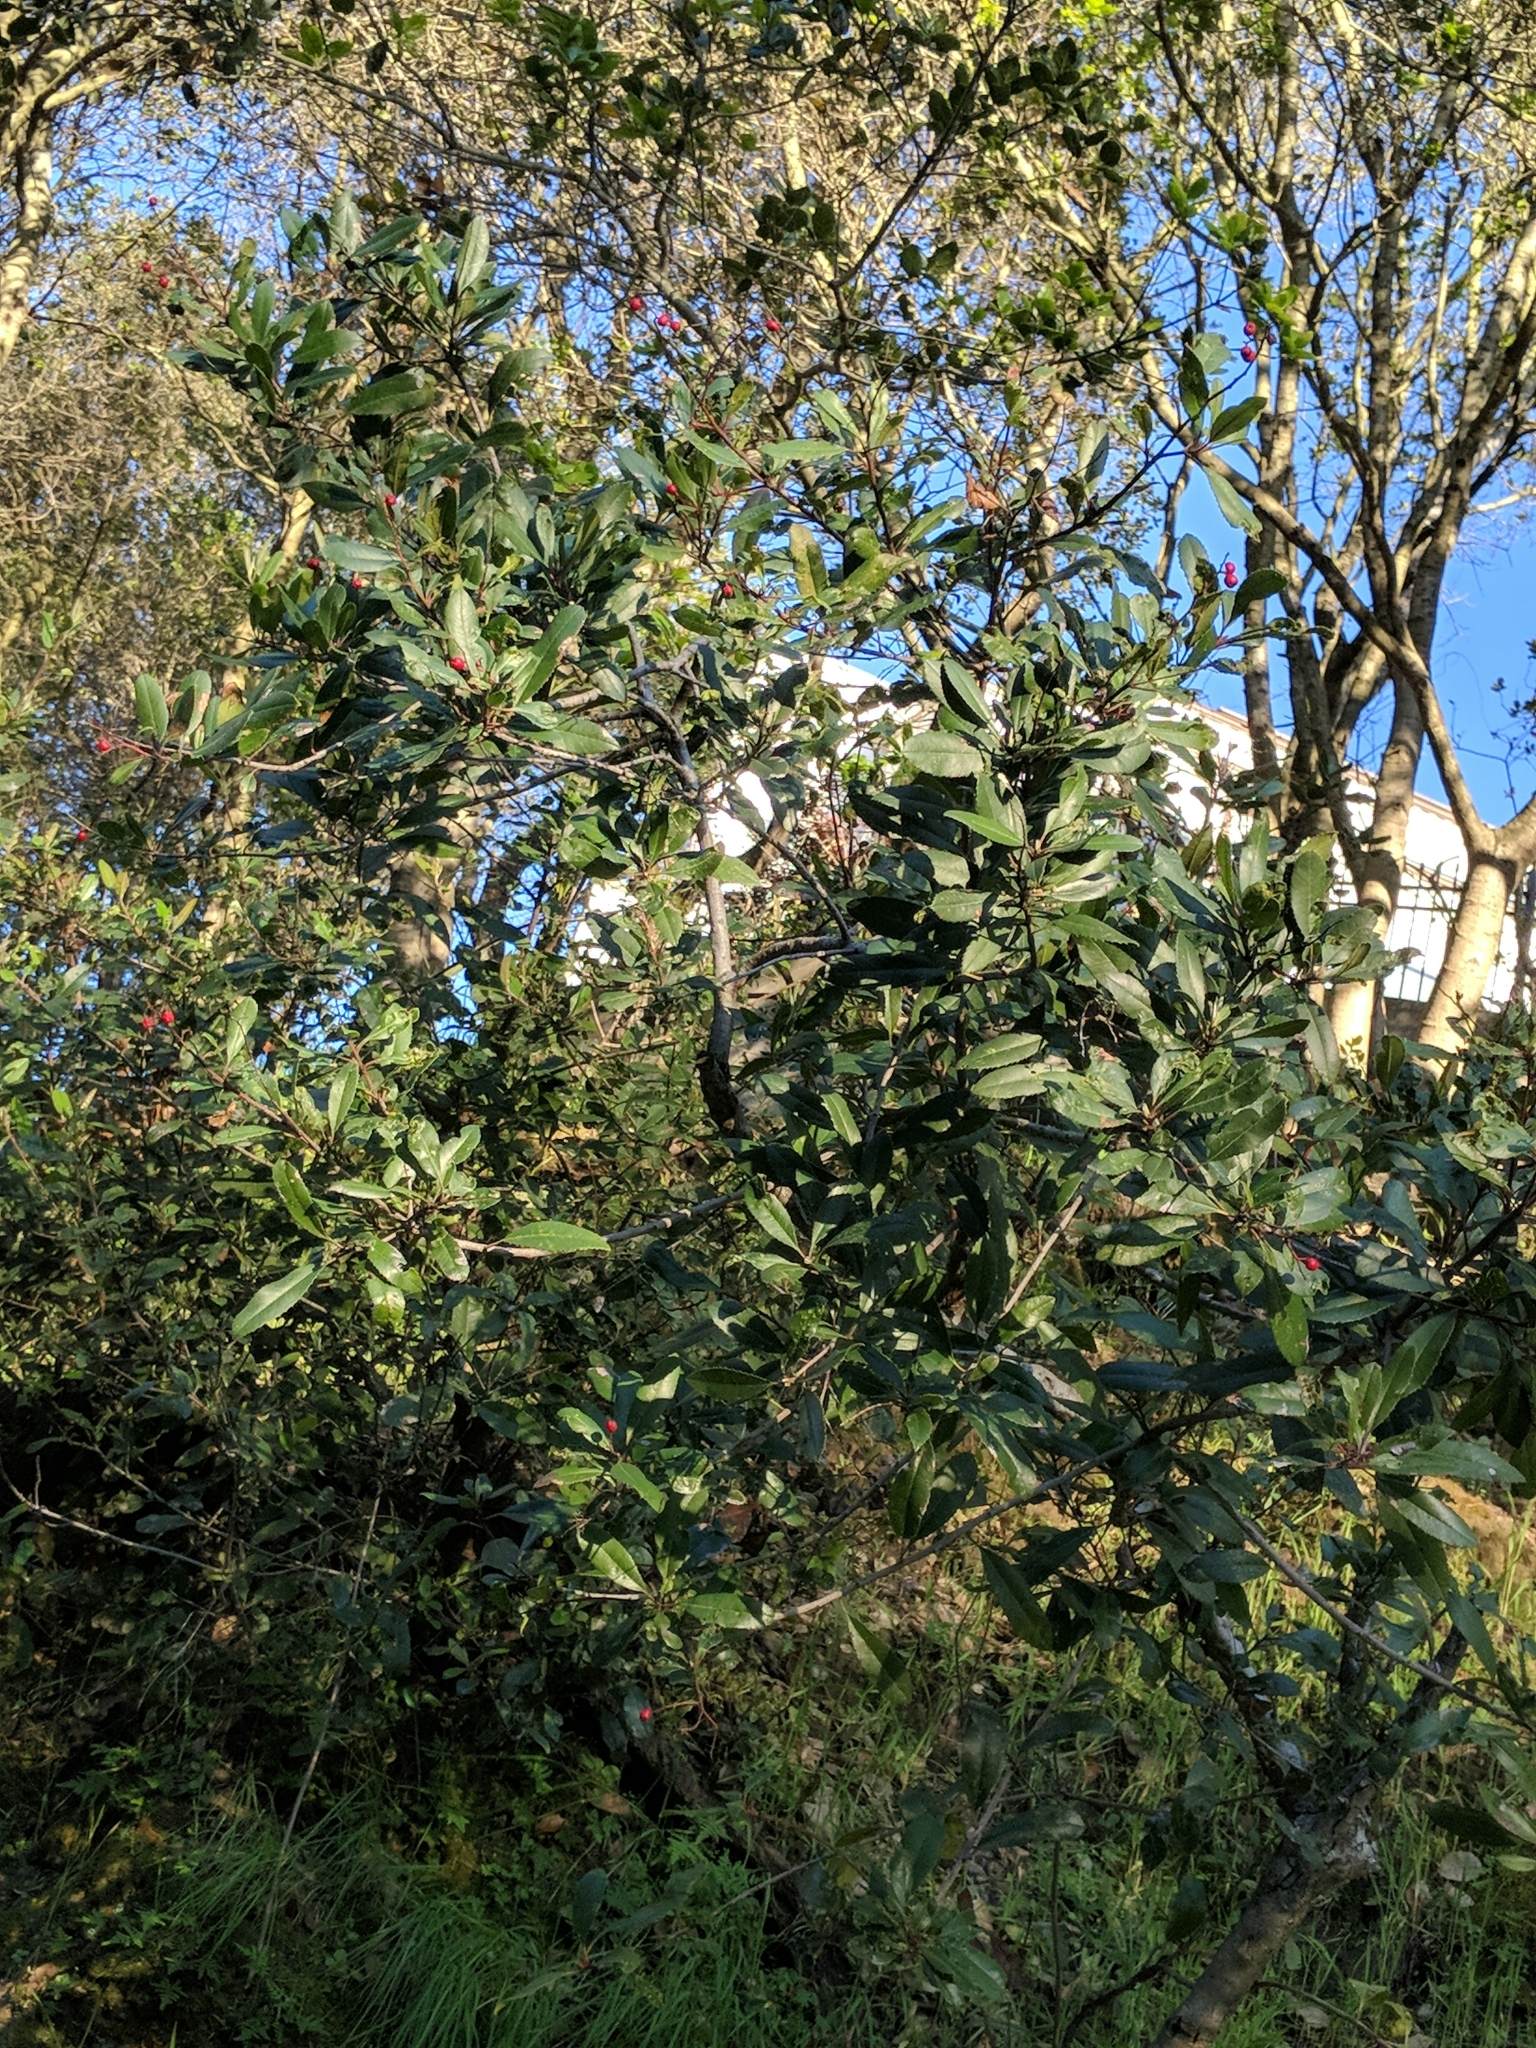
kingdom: Plantae
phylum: Tracheophyta
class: Magnoliopsida
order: Rosales
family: Rosaceae
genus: Heteromeles
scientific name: Heteromeles arbutifolia
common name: California-holly
